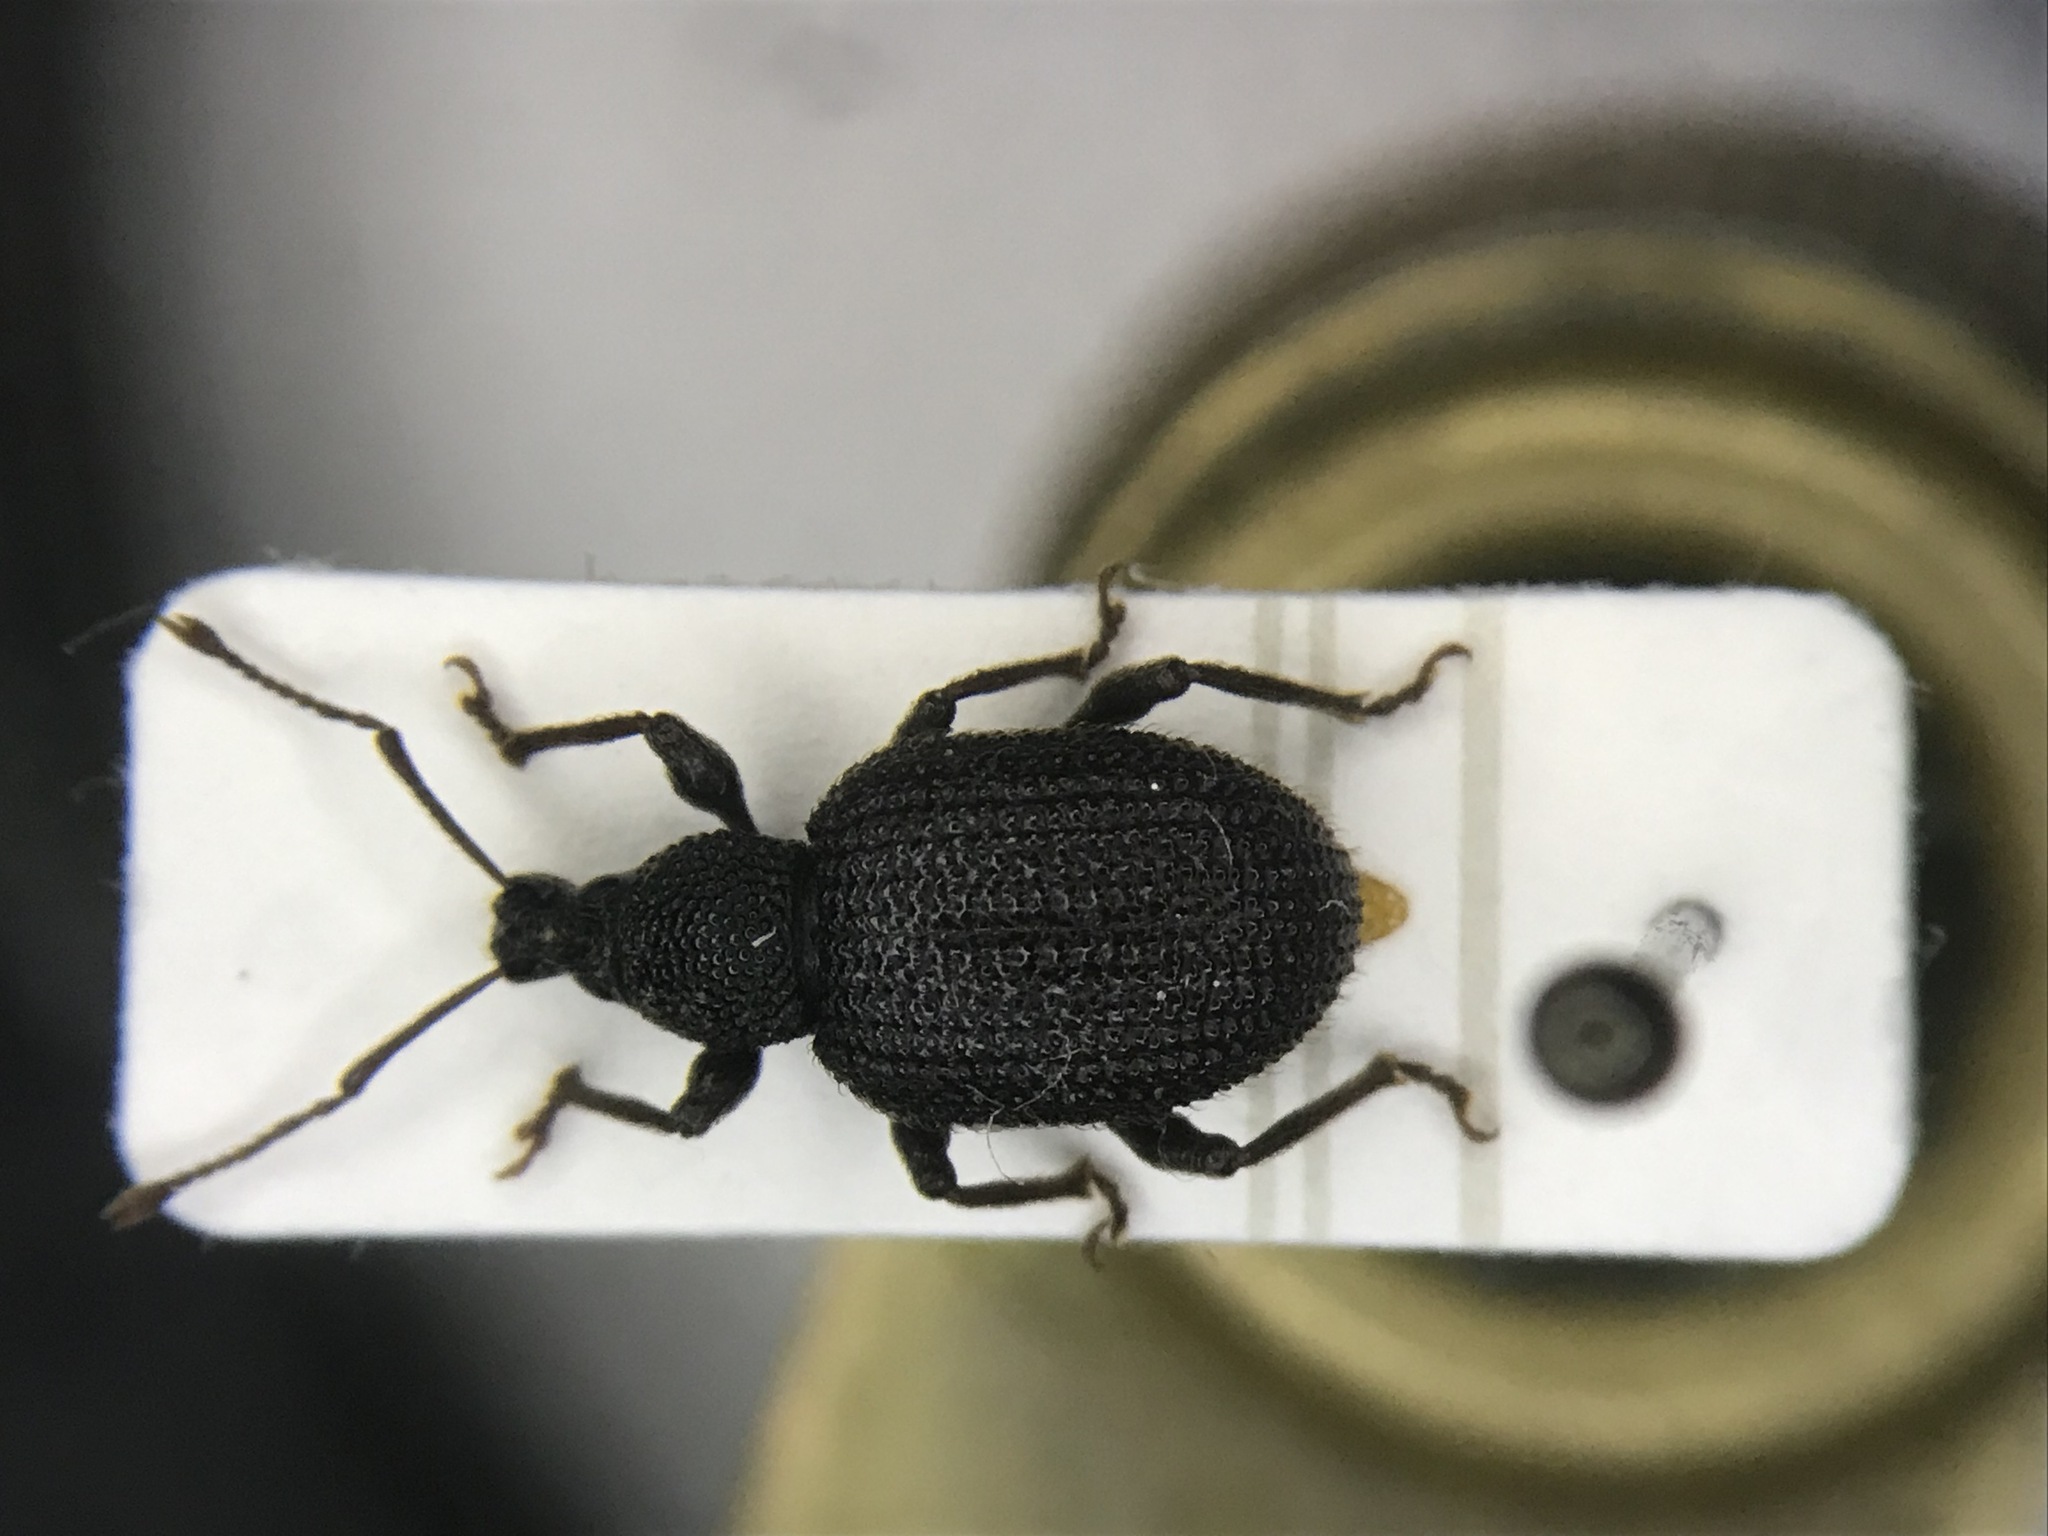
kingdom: Animalia
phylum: Arthropoda
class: Insecta
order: Coleoptera
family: Curculionidae
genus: Otiorhynchus
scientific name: Otiorhynchus rugosostriatus
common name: Weevil
